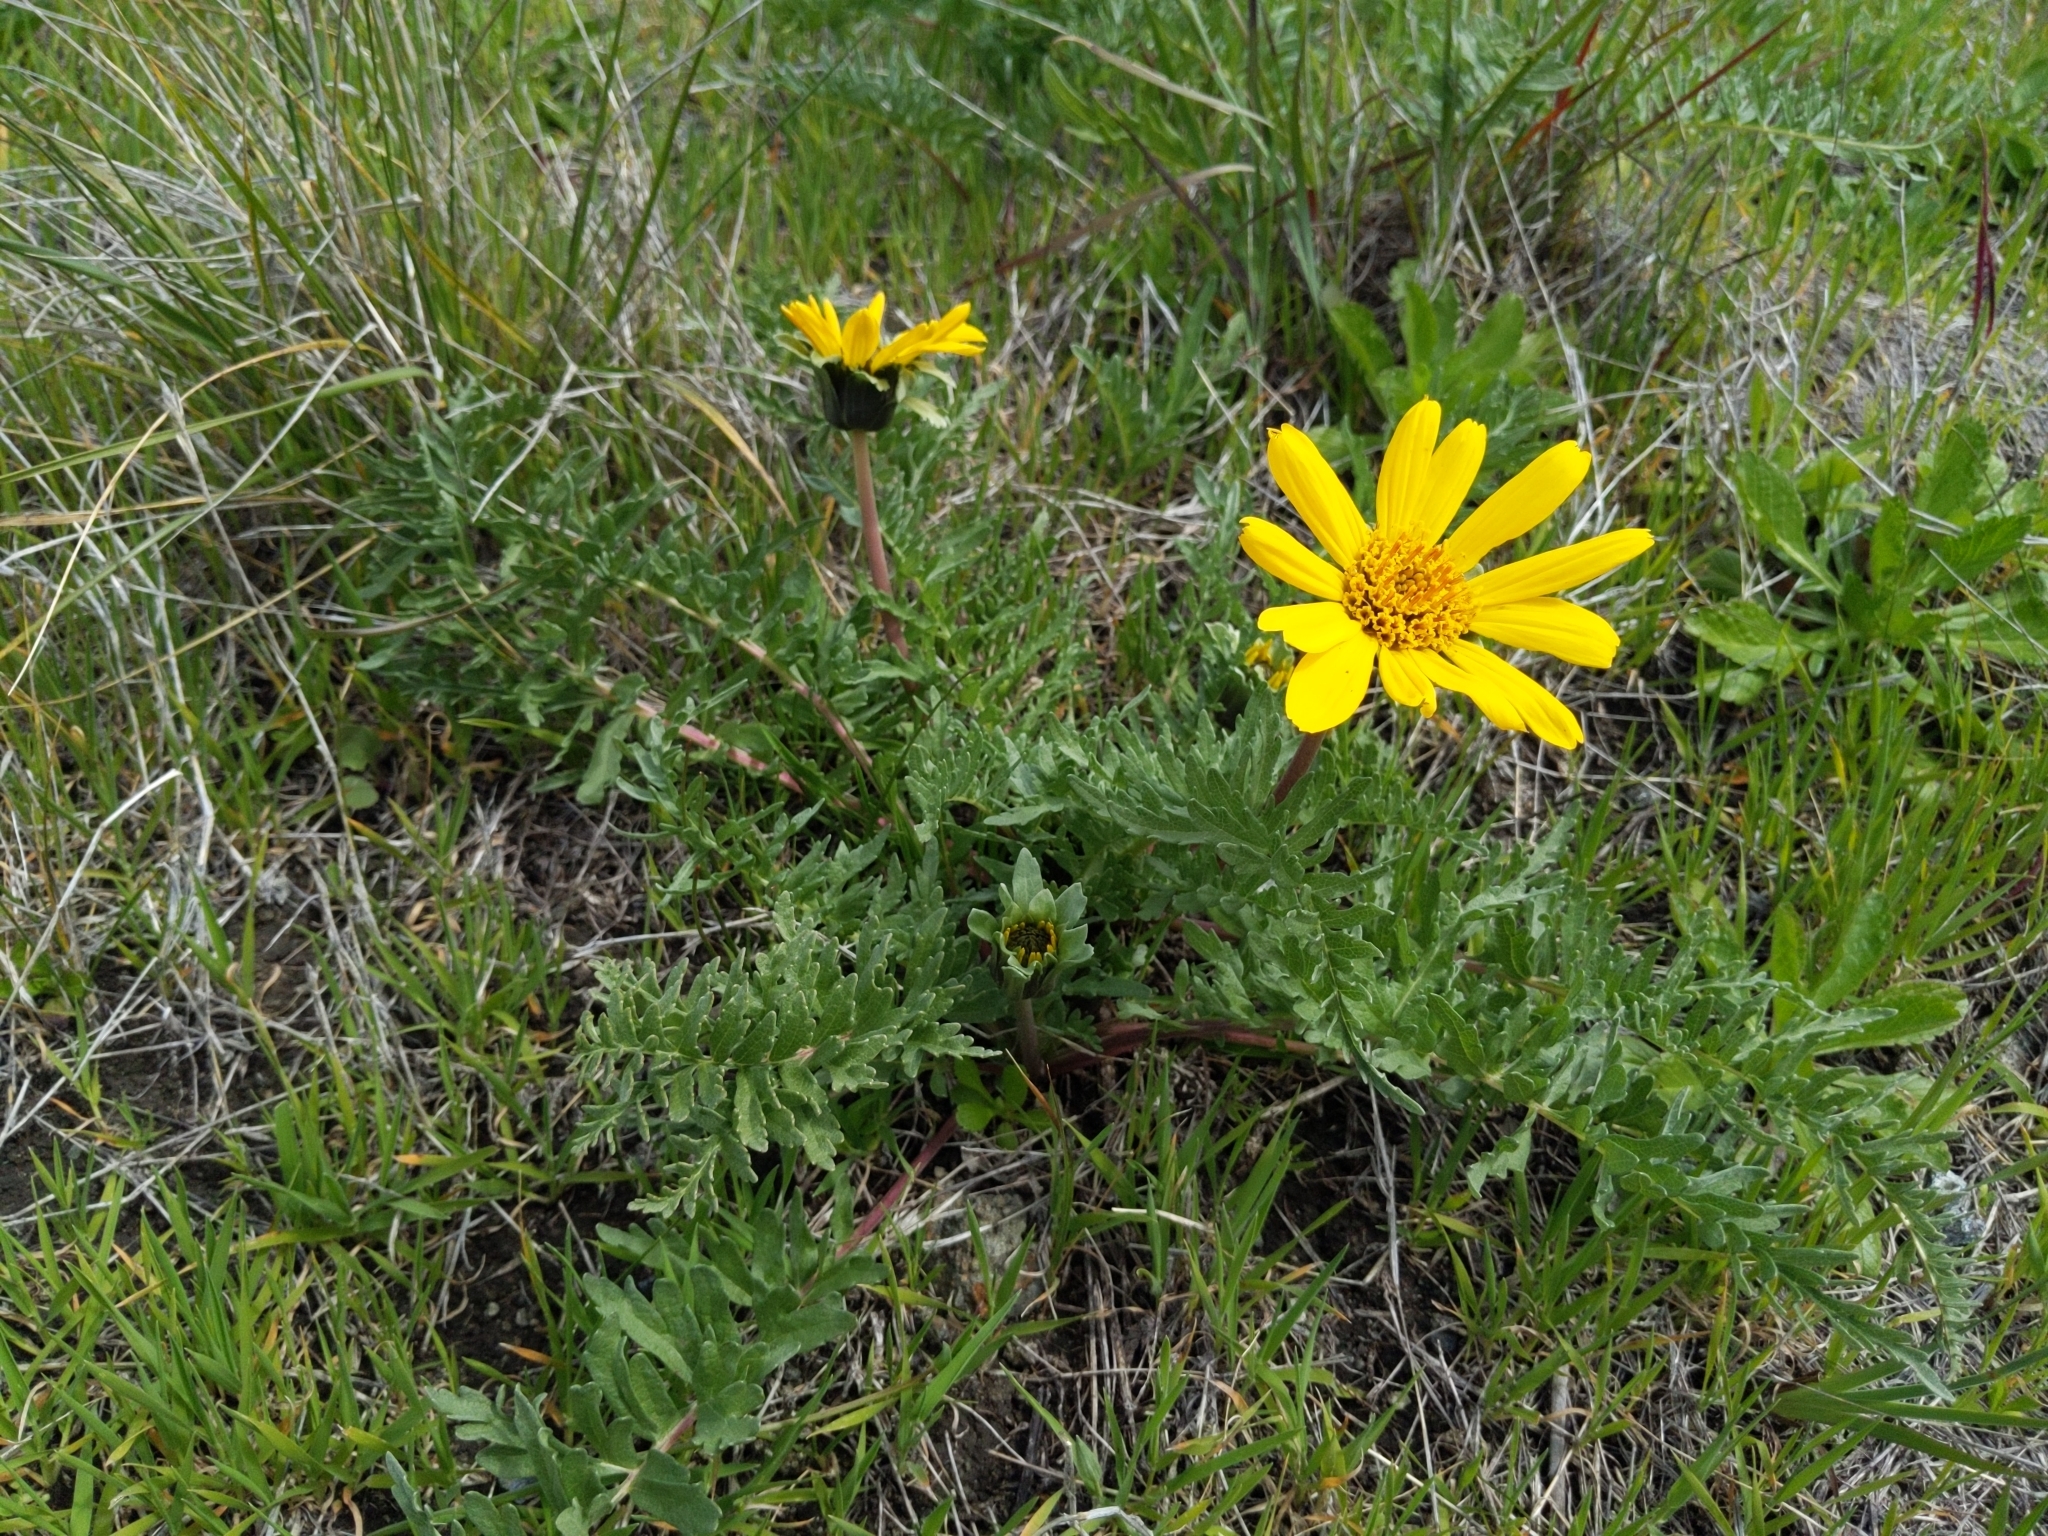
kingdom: Plantae
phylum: Tracheophyta
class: Magnoliopsida
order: Asterales
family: Asteraceae
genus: Balsamorhiza
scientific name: Balsamorhiza macrolepis
